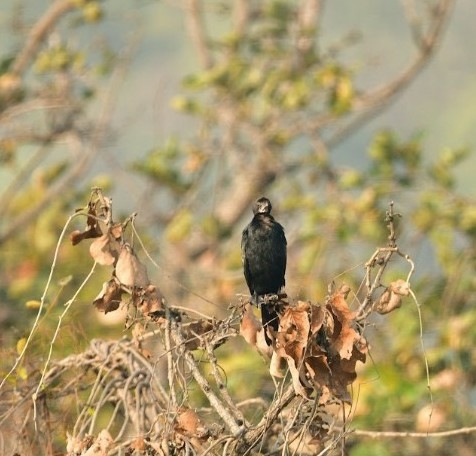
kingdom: Animalia
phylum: Chordata
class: Aves
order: Suliformes
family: Phalacrocoracidae
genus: Microcarbo
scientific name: Microcarbo niger
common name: Little cormorant
